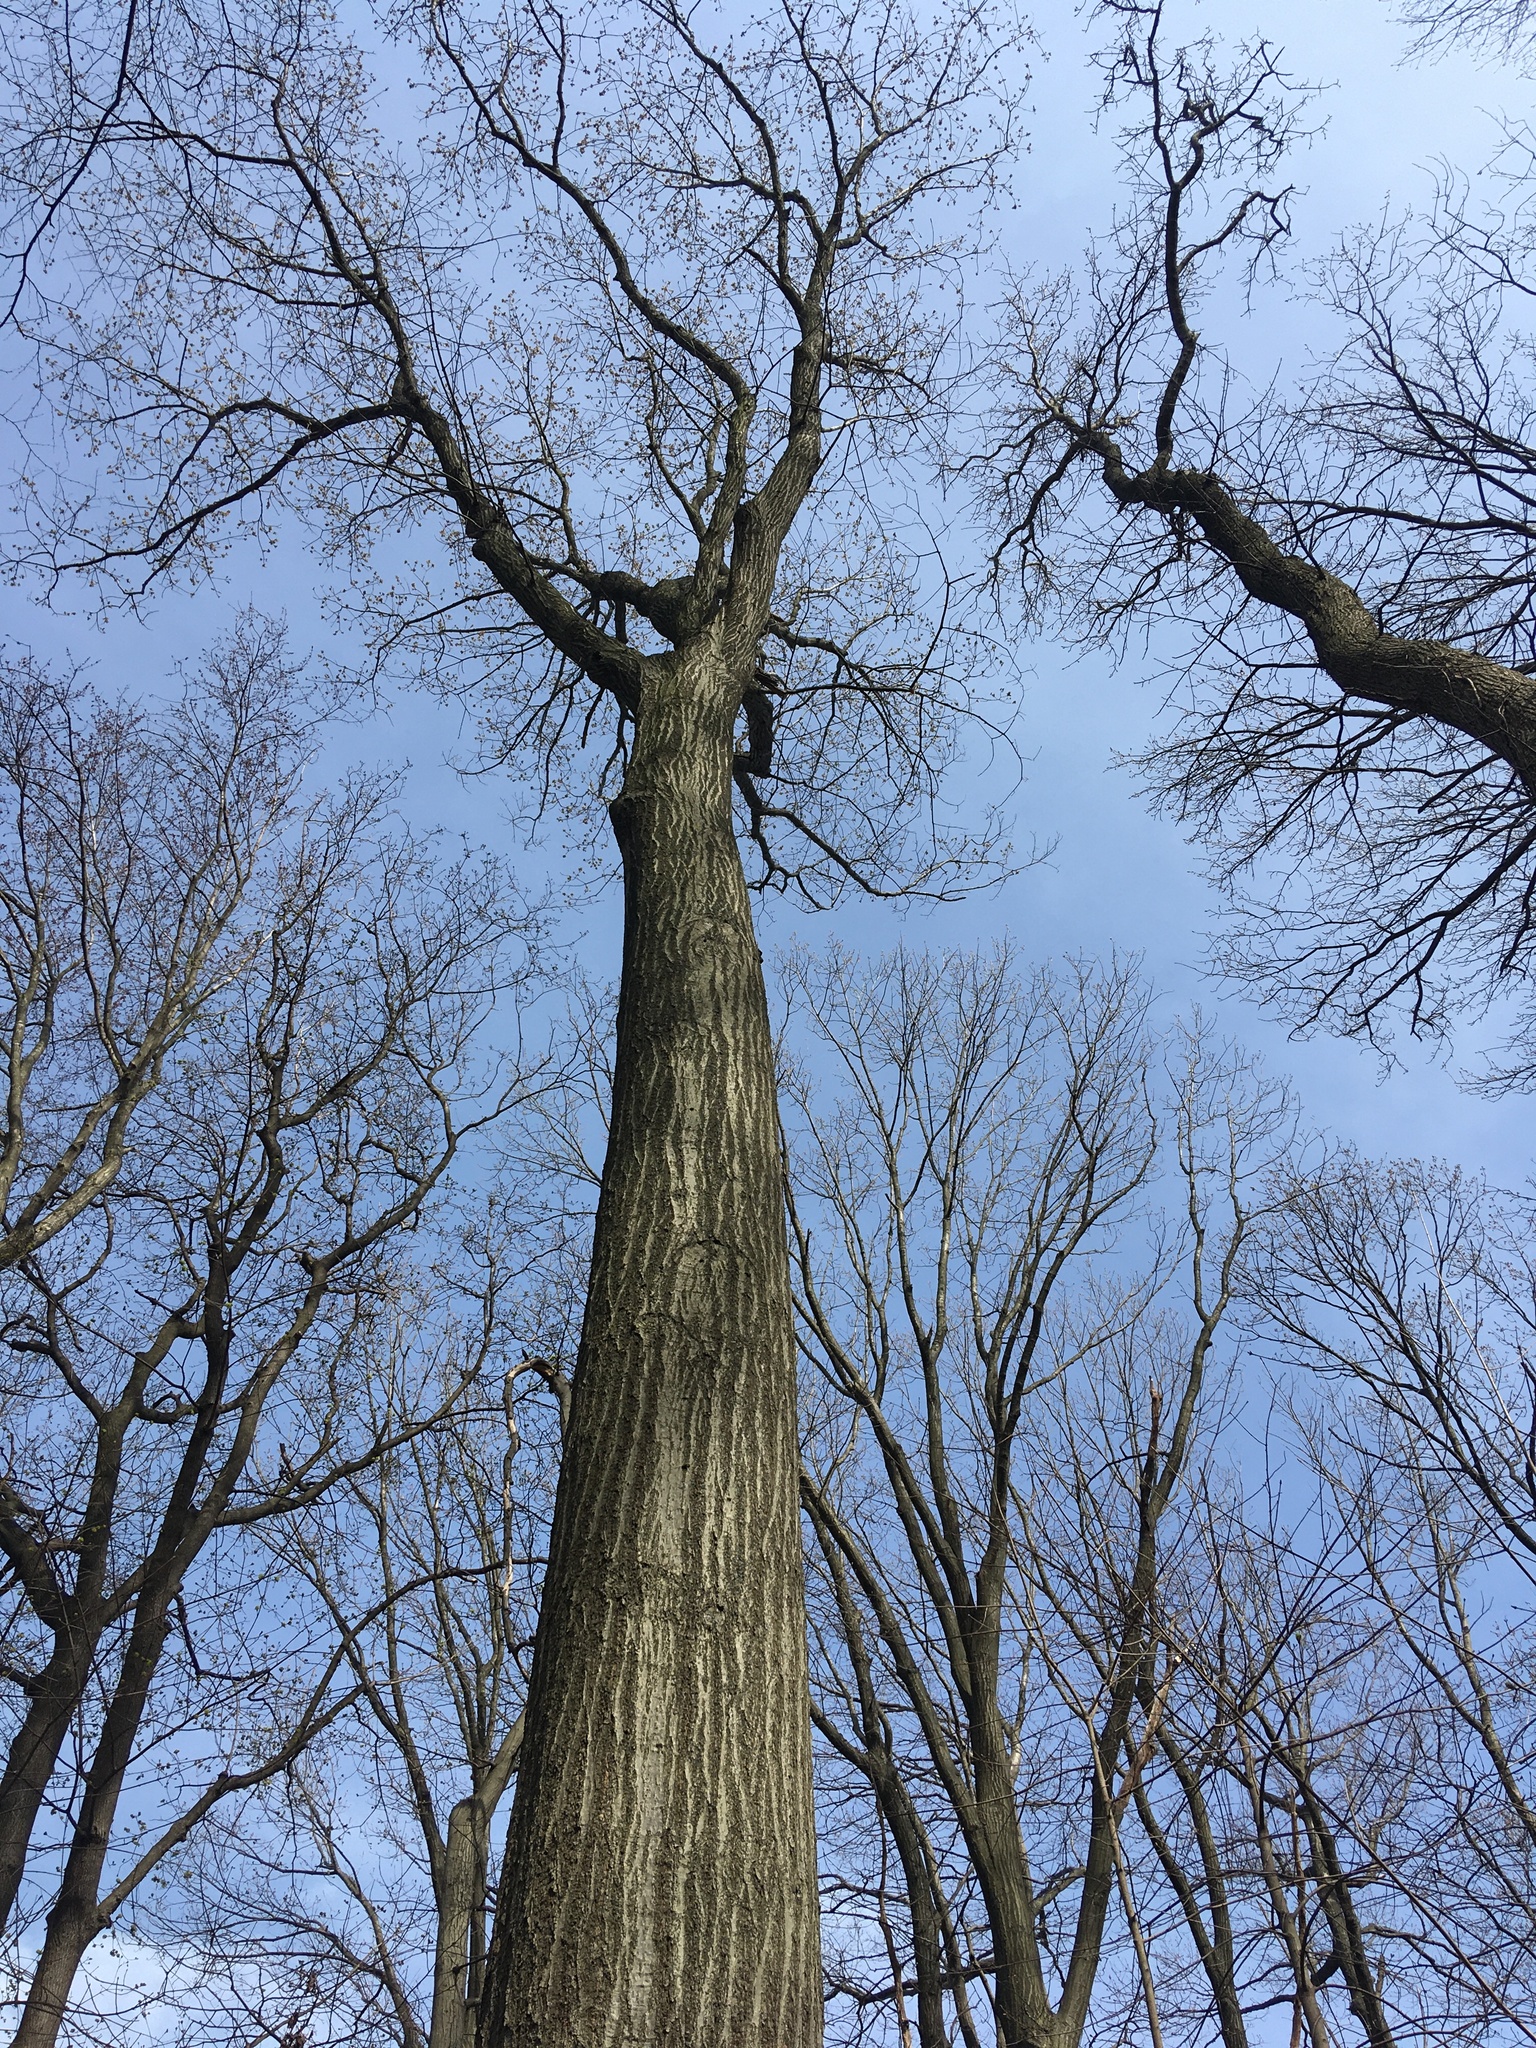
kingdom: Plantae
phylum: Tracheophyta
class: Magnoliopsida
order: Fagales
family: Fagaceae
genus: Quercus
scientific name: Quercus rubra
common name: Red oak
